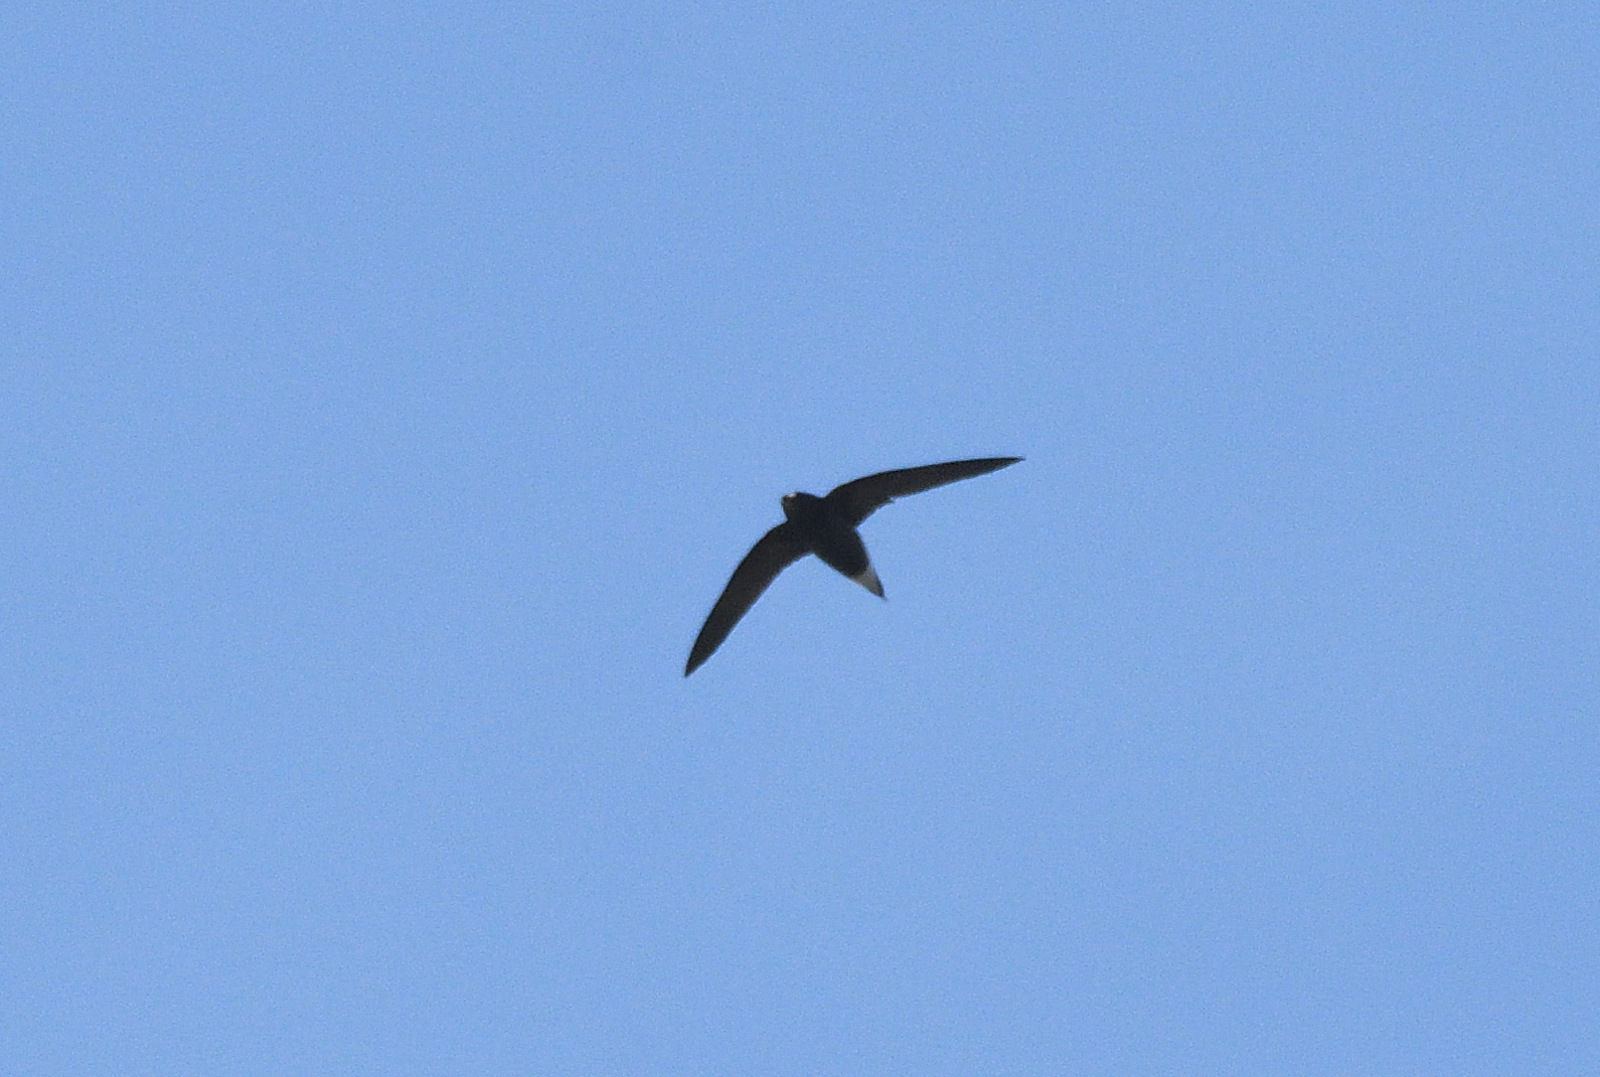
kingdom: Animalia
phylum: Chordata
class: Aves
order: Apodiformes
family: Apodidae
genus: Hirundapus
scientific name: Hirundapus giganteus
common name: Brown-backed needletail
